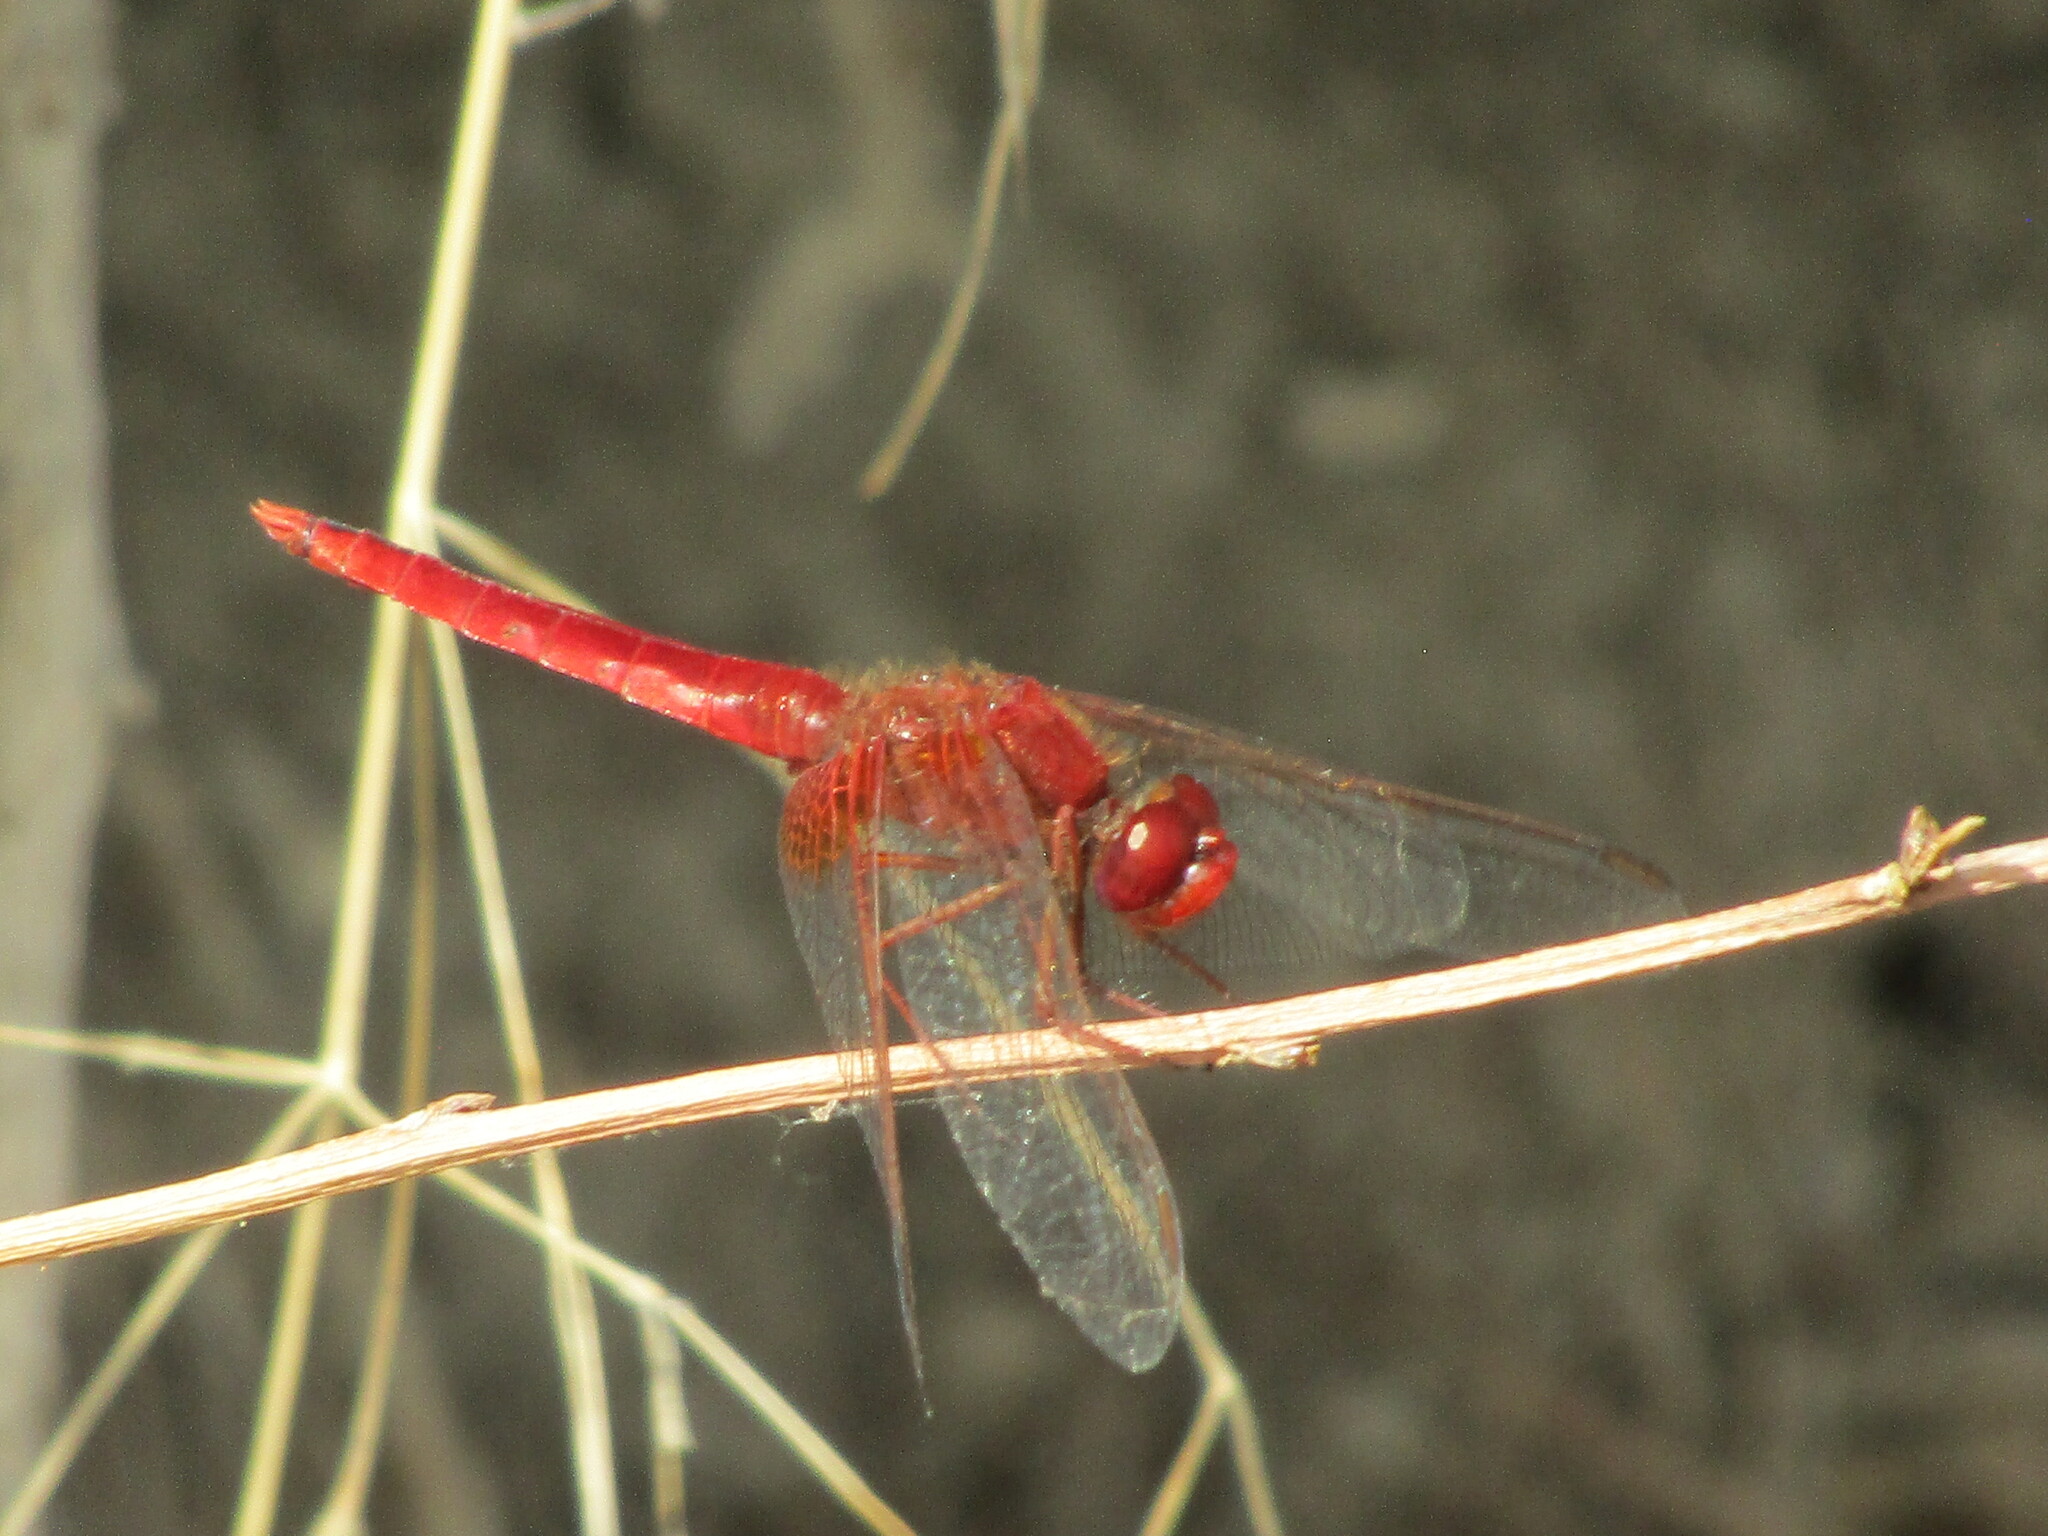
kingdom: Animalia
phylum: Arthropoda
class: Insecta
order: Odonata
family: Libellulidae
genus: Crocothemis
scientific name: Crocothemis erythraea
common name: Scarlet dragonfly
